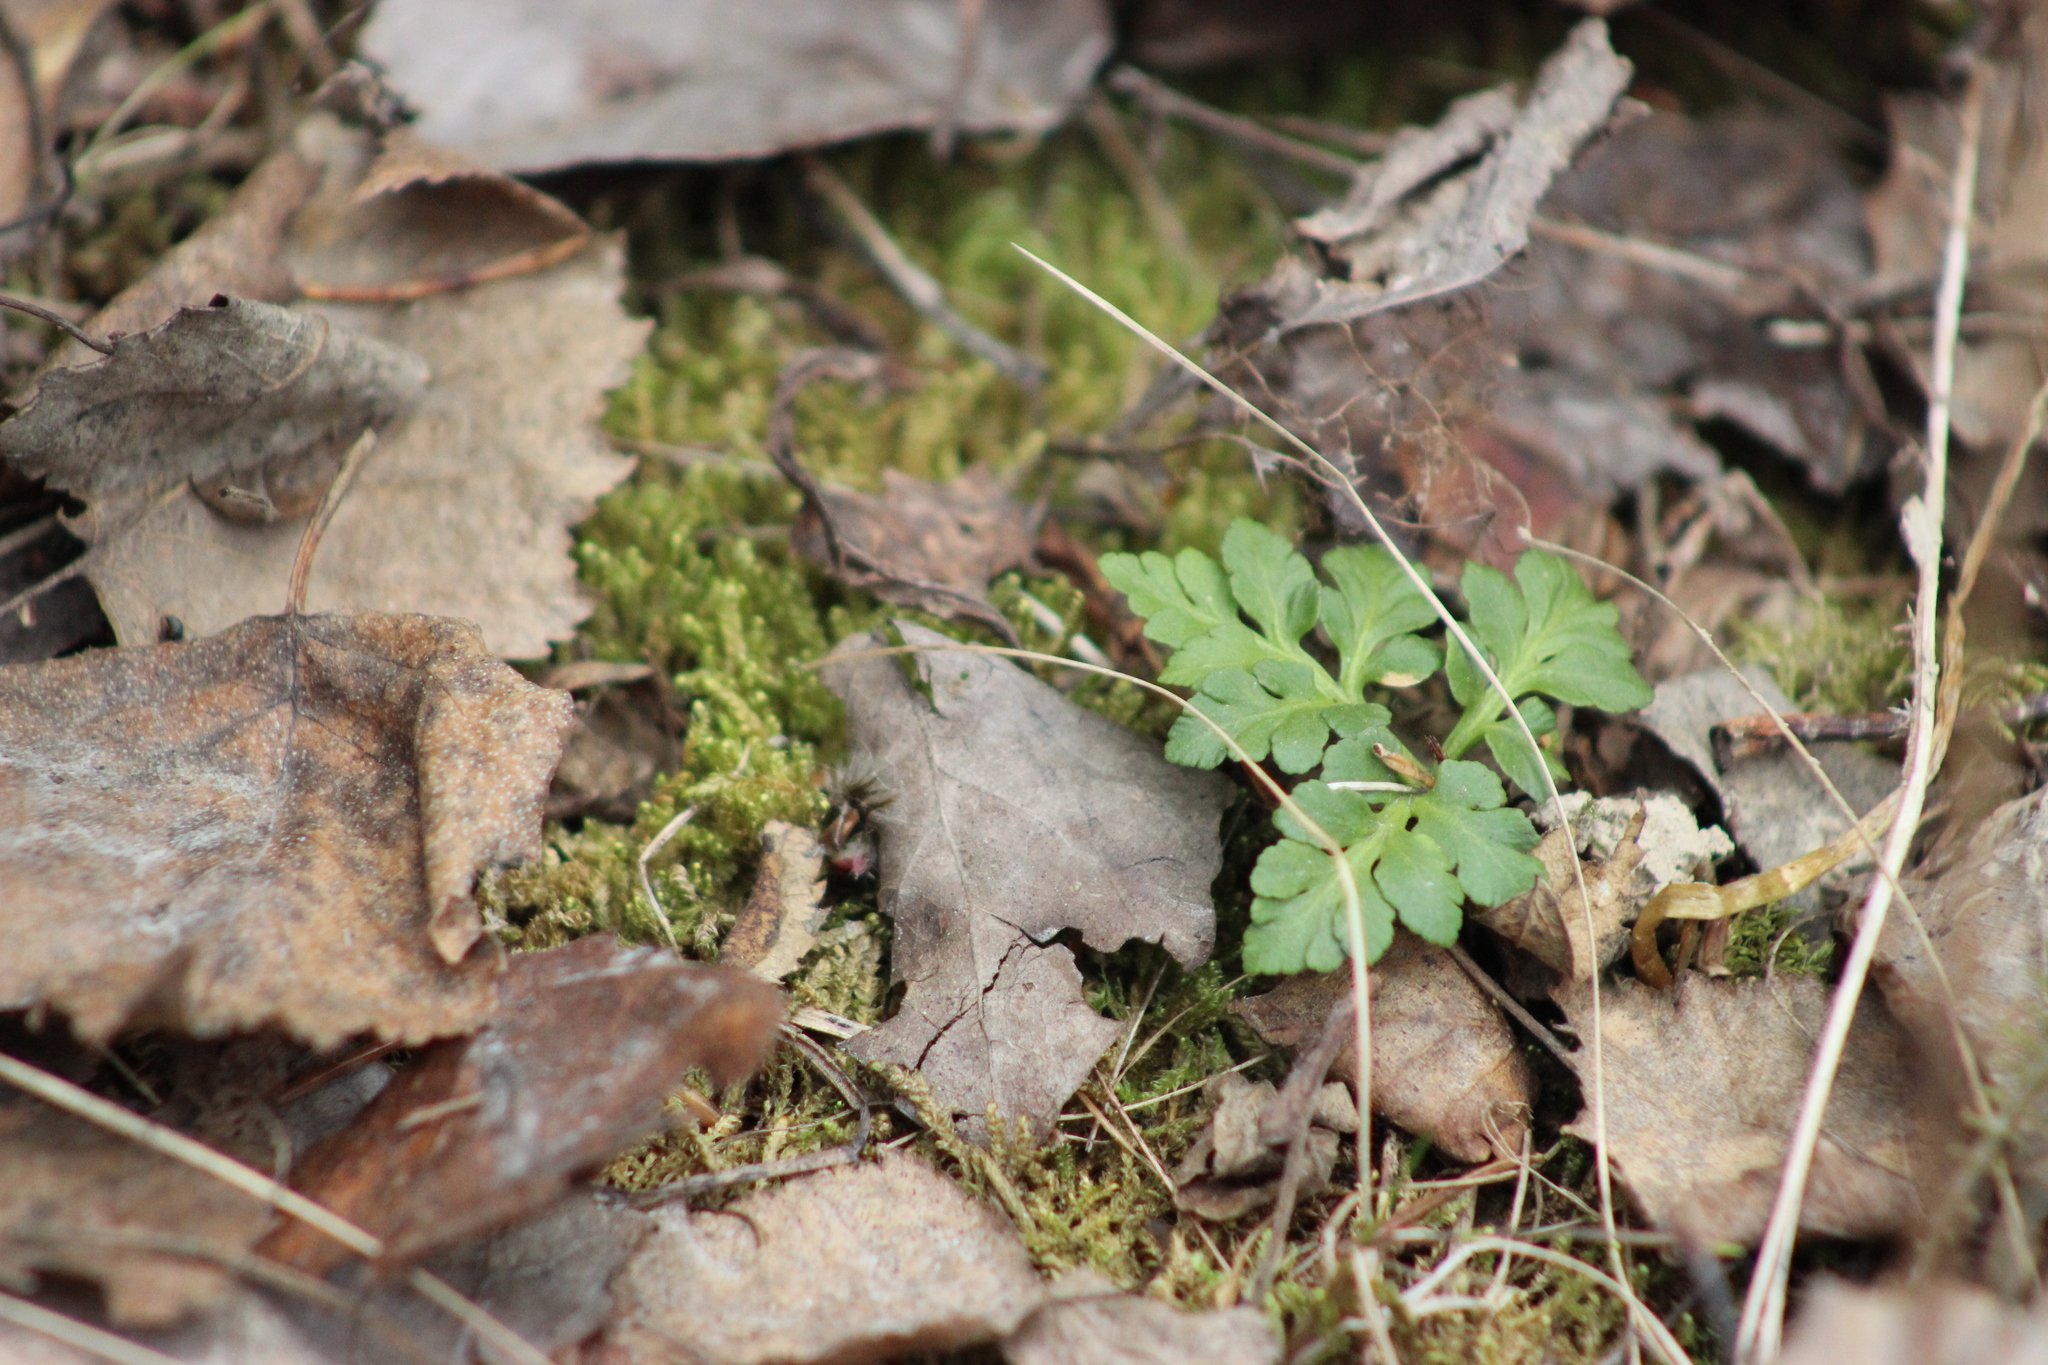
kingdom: Plantae
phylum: Tracheophyta
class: Polypodiopsida
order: Ophioglossales
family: Ophioglossaceae
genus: Sceptridium
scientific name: Sceptridium multifidum
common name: Leathery grape fern
